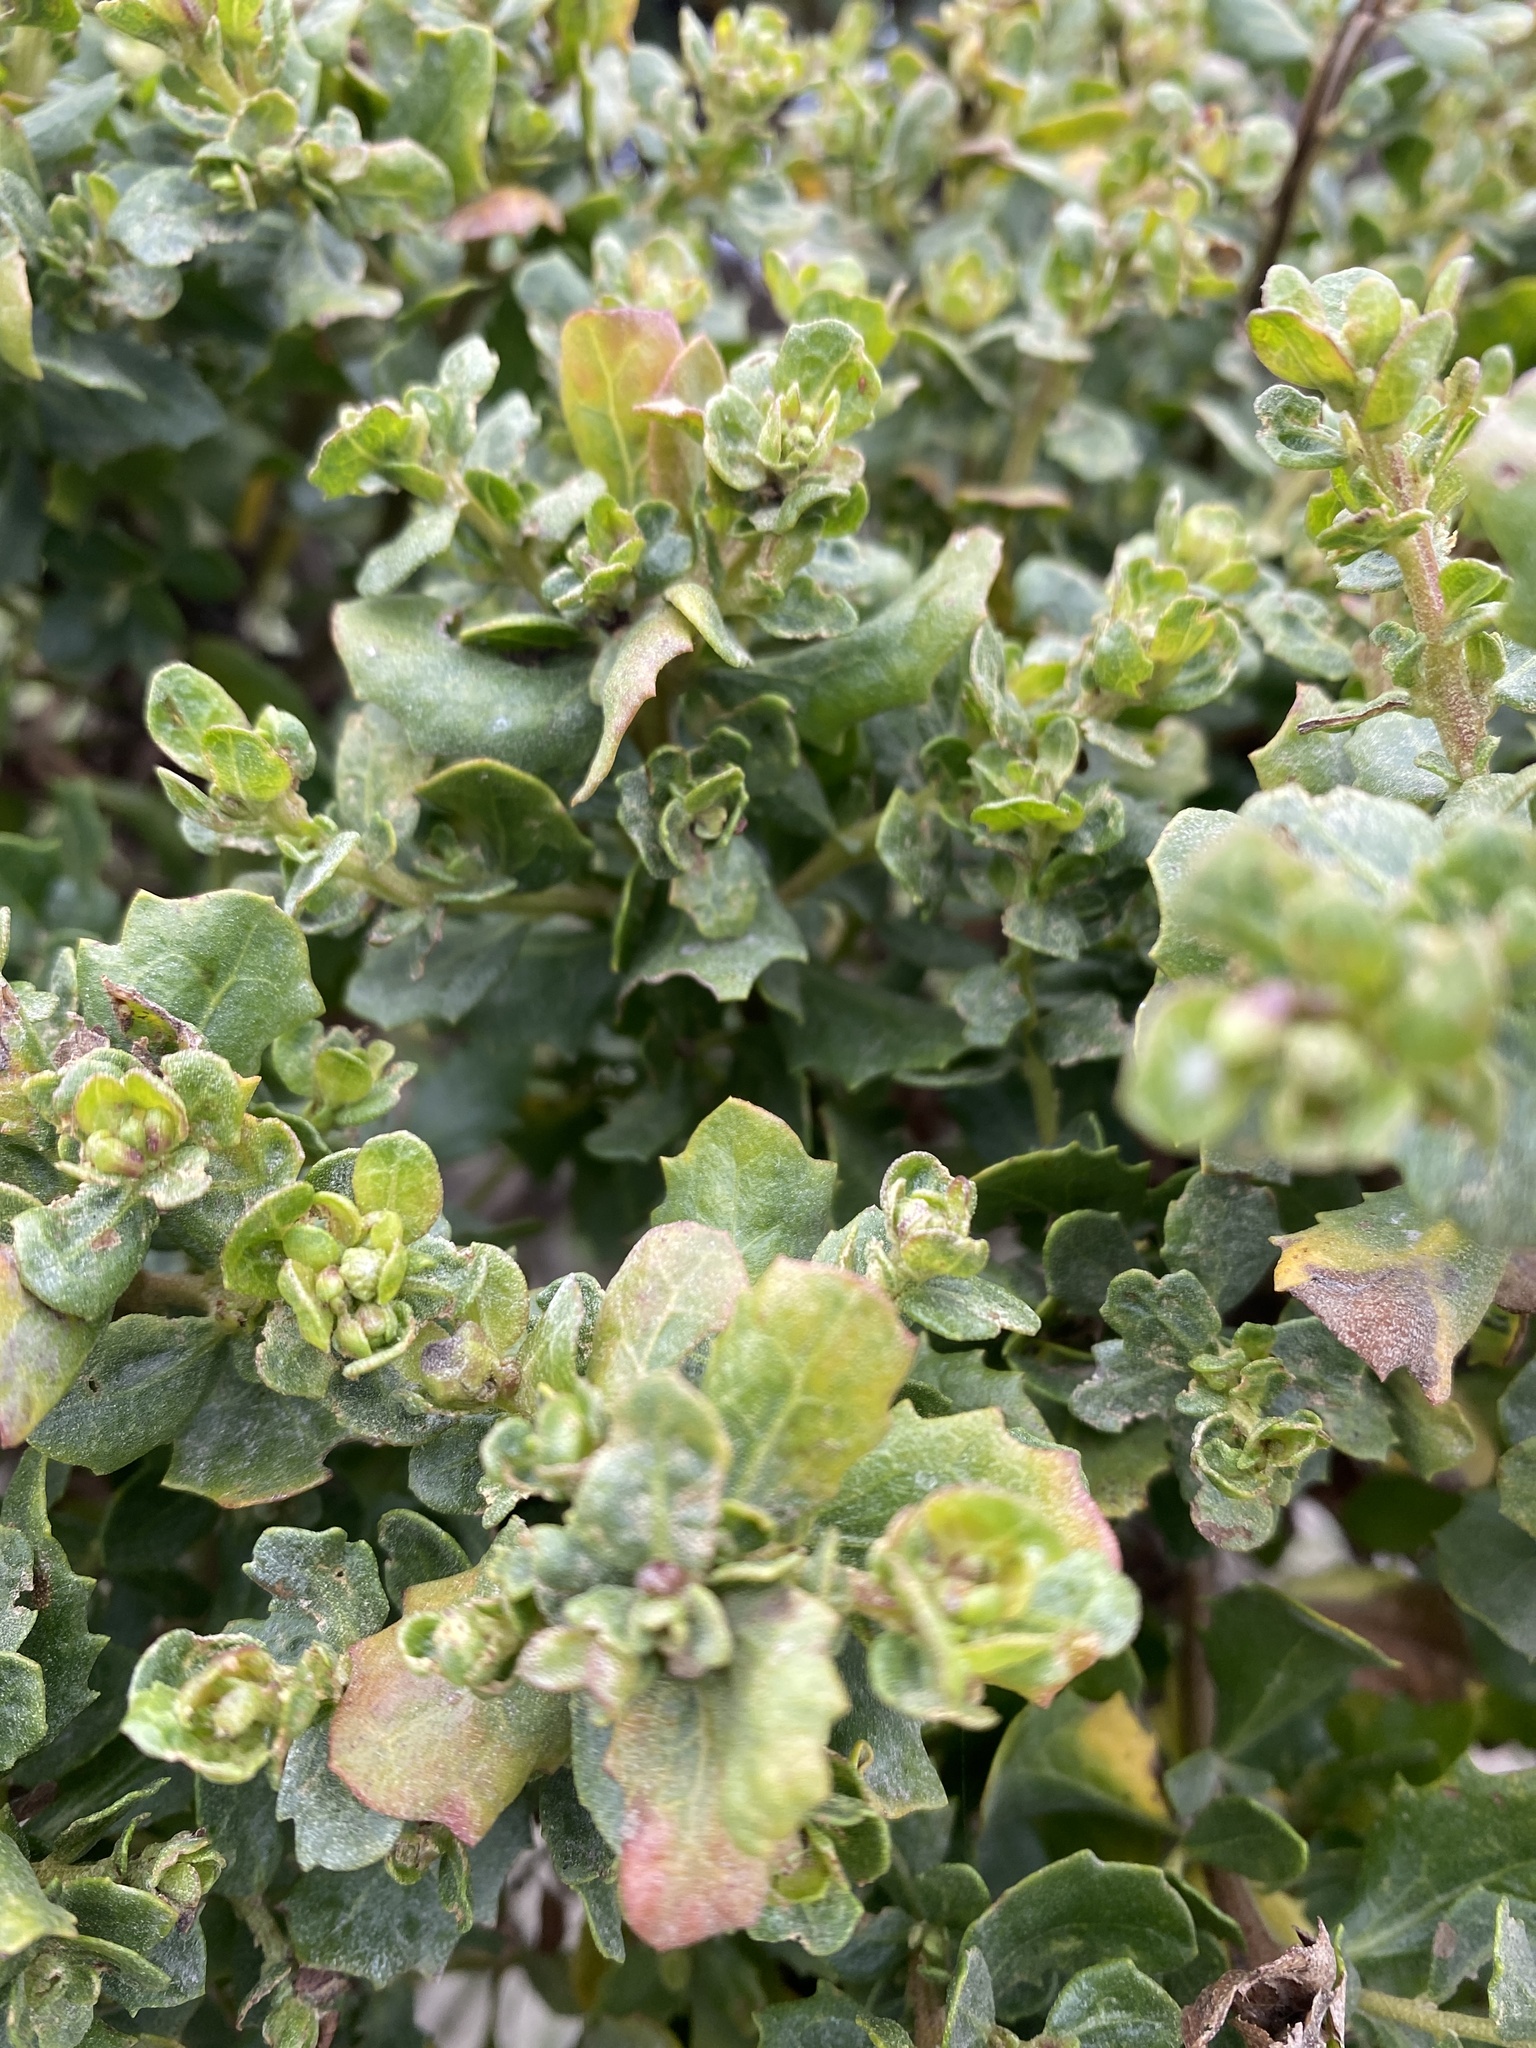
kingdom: Plantae
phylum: Tracheophyta
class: Magnoliopsida
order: Asterales
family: Asteraceae
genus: Baccharis
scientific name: Baccharis pilularis
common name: Coyotebrush
